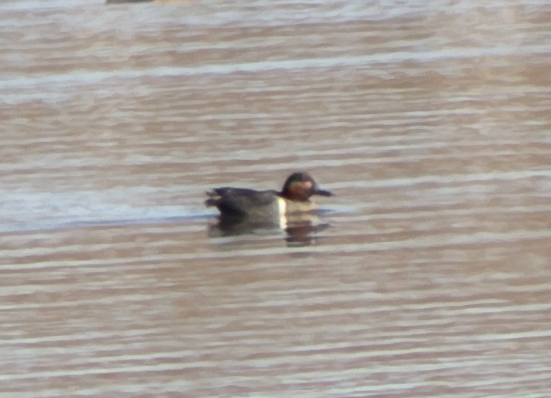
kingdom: Animalia
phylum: Chordata
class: Aves
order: Anseriformes
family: Anatidae
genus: Anas
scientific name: Anas crecca
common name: Eurasian teal
